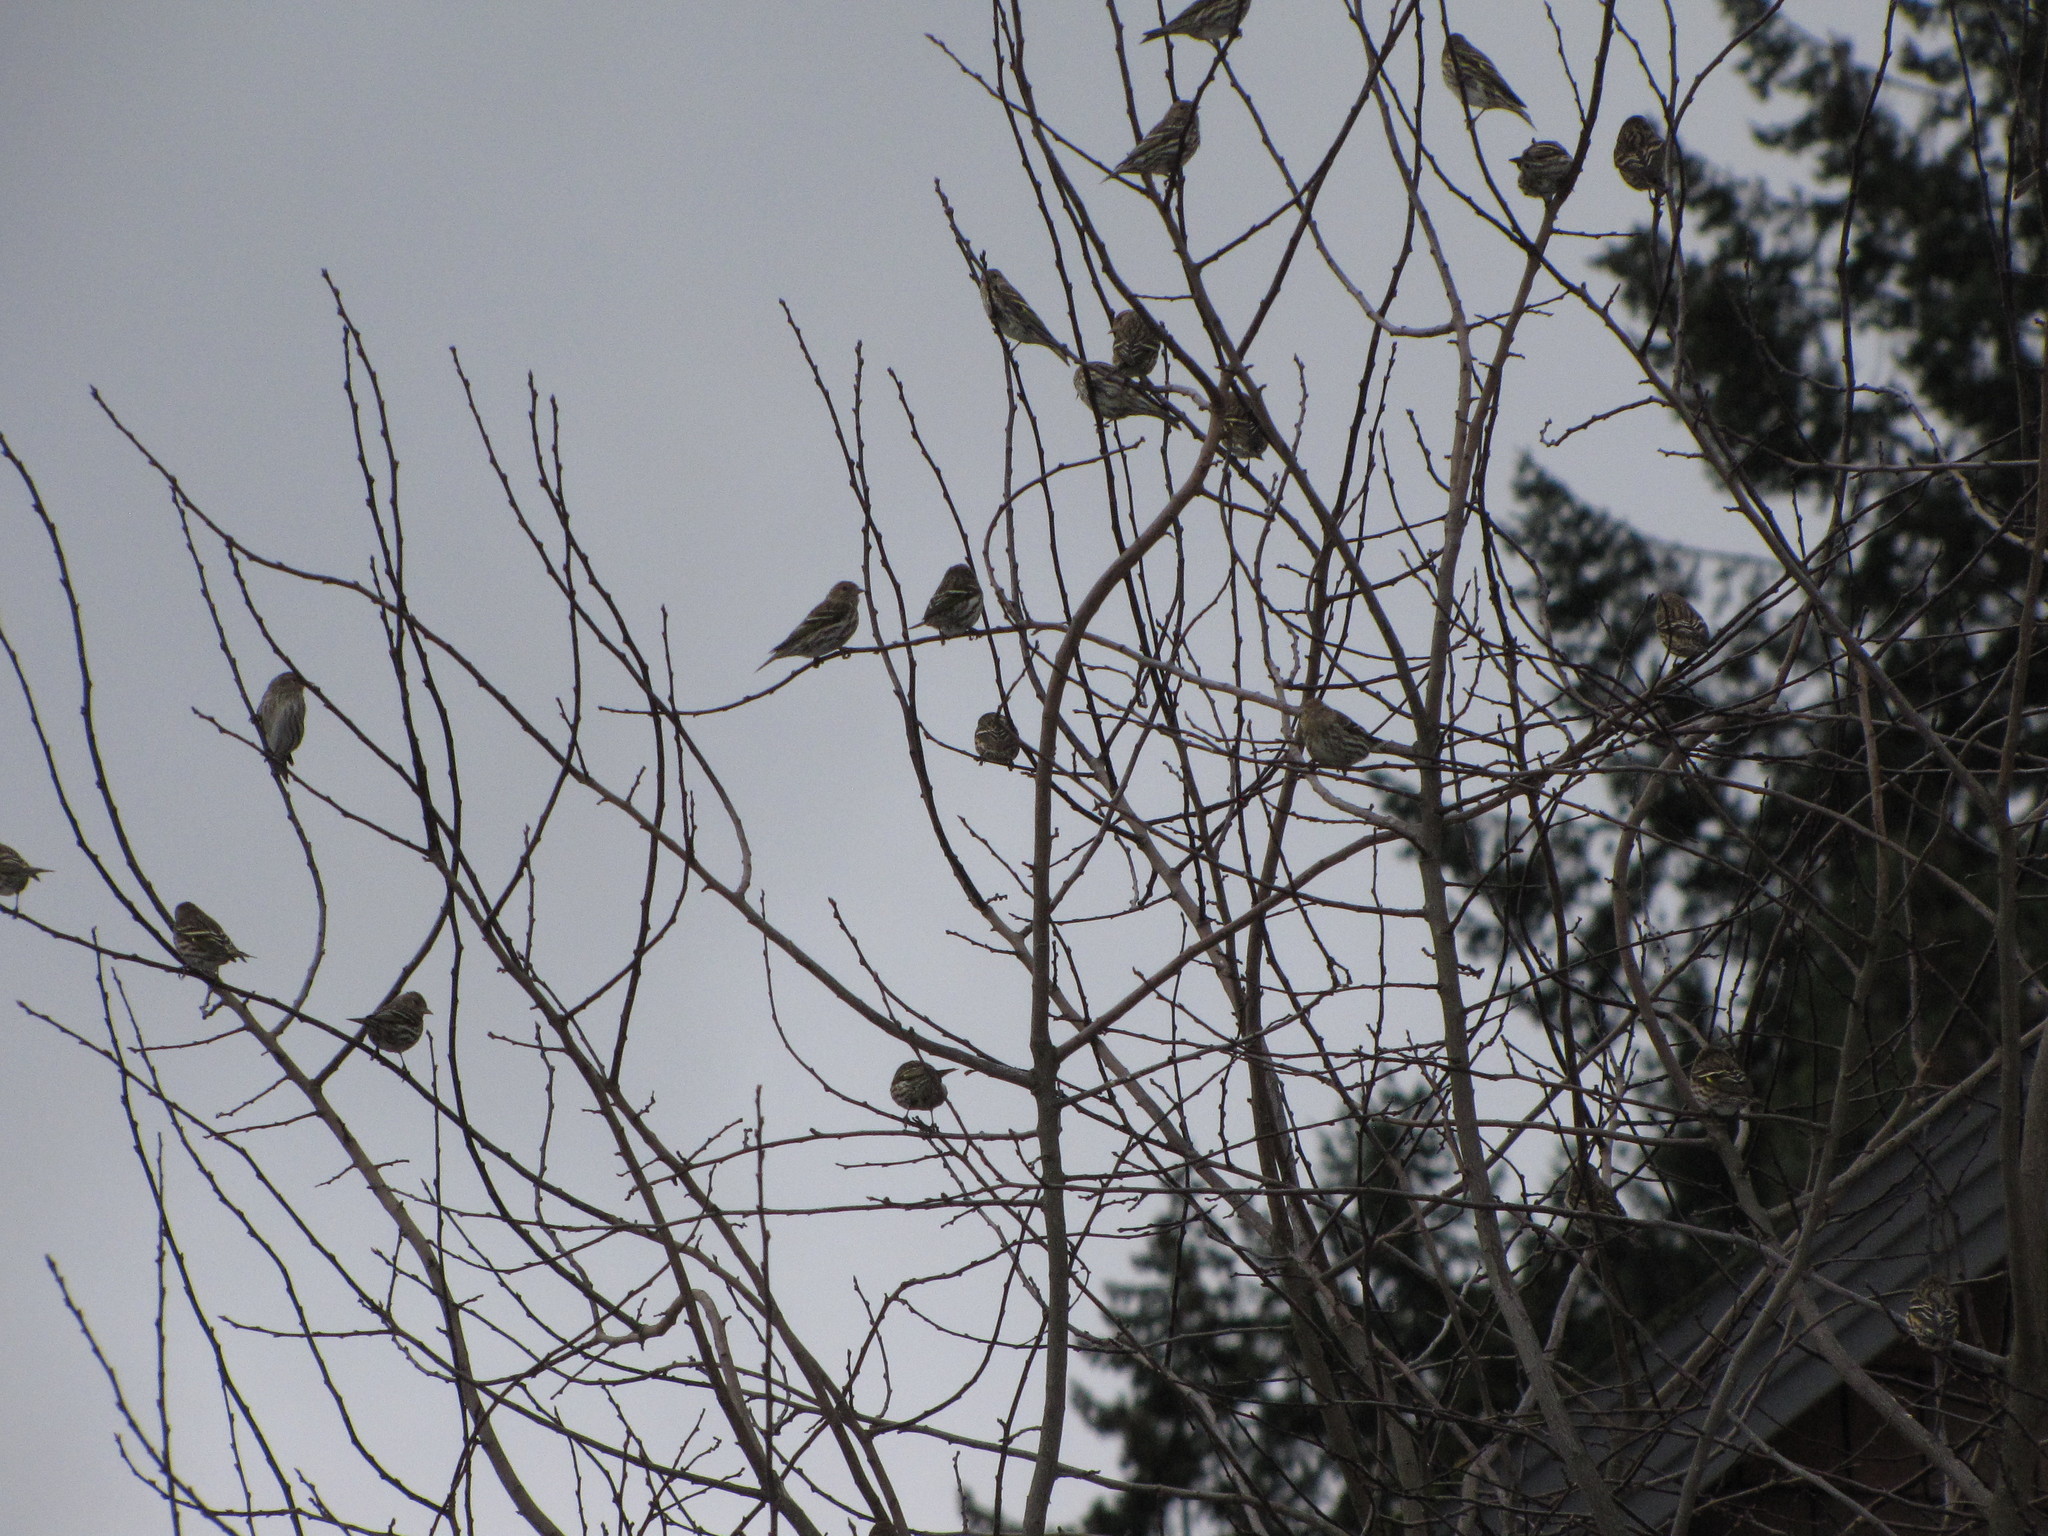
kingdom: Animalia
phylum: Chordata
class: Aves
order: Passeriformes
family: Fringillidae
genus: Spinus
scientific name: Spinus pinus
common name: Pine siskin
